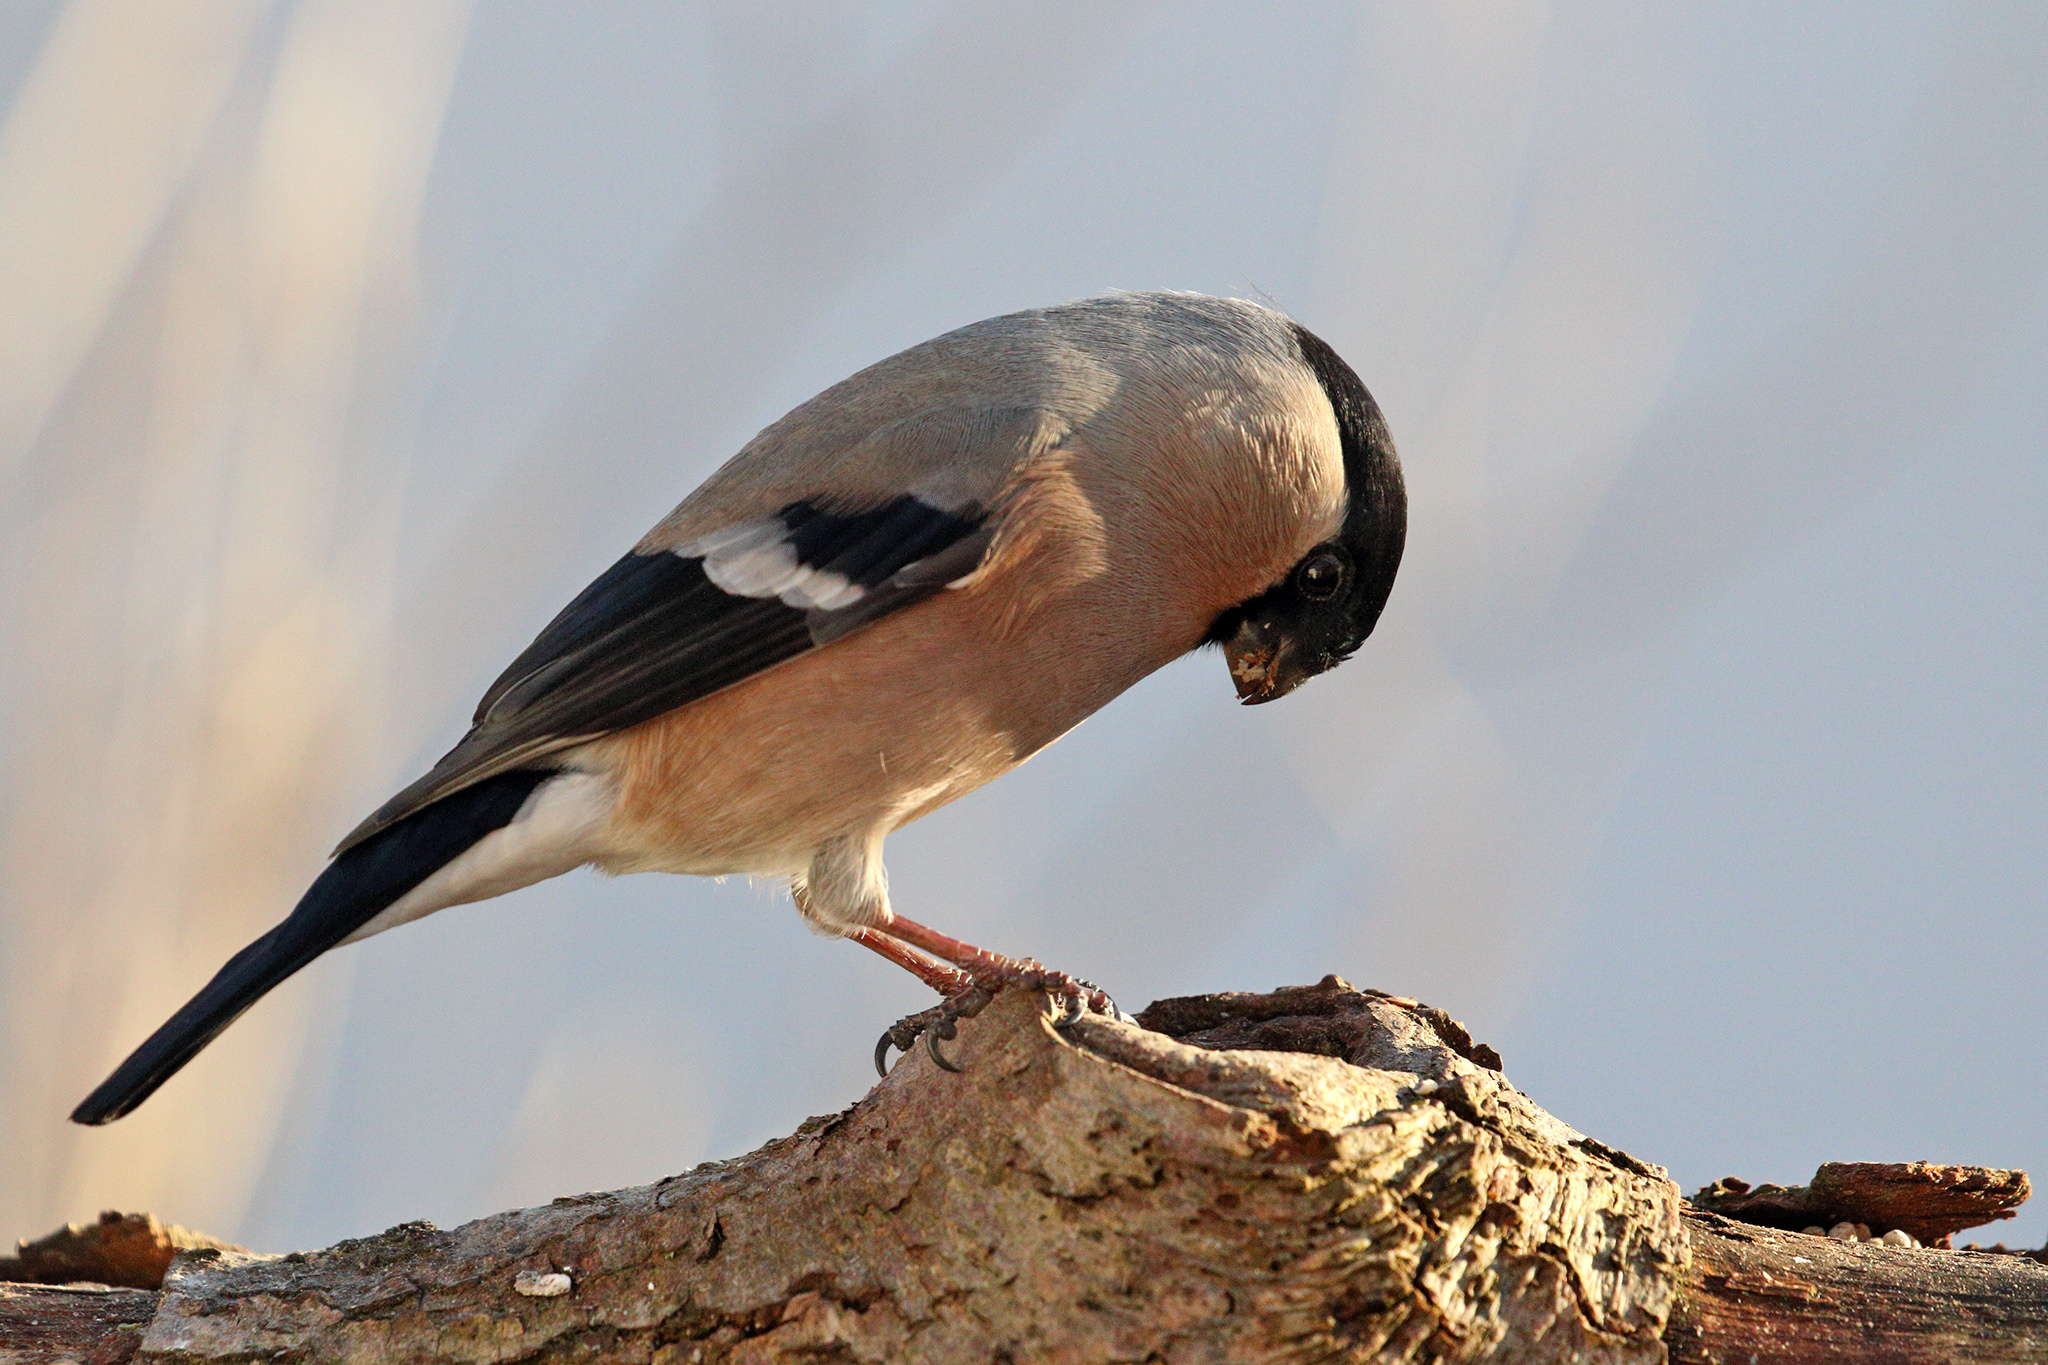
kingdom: Animalia
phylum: Chordata
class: Aves
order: Passeriformes
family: Fringillidae
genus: Pyrrhula
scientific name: Pyrrhula pyrrhula
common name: Eurasian bullfinch
